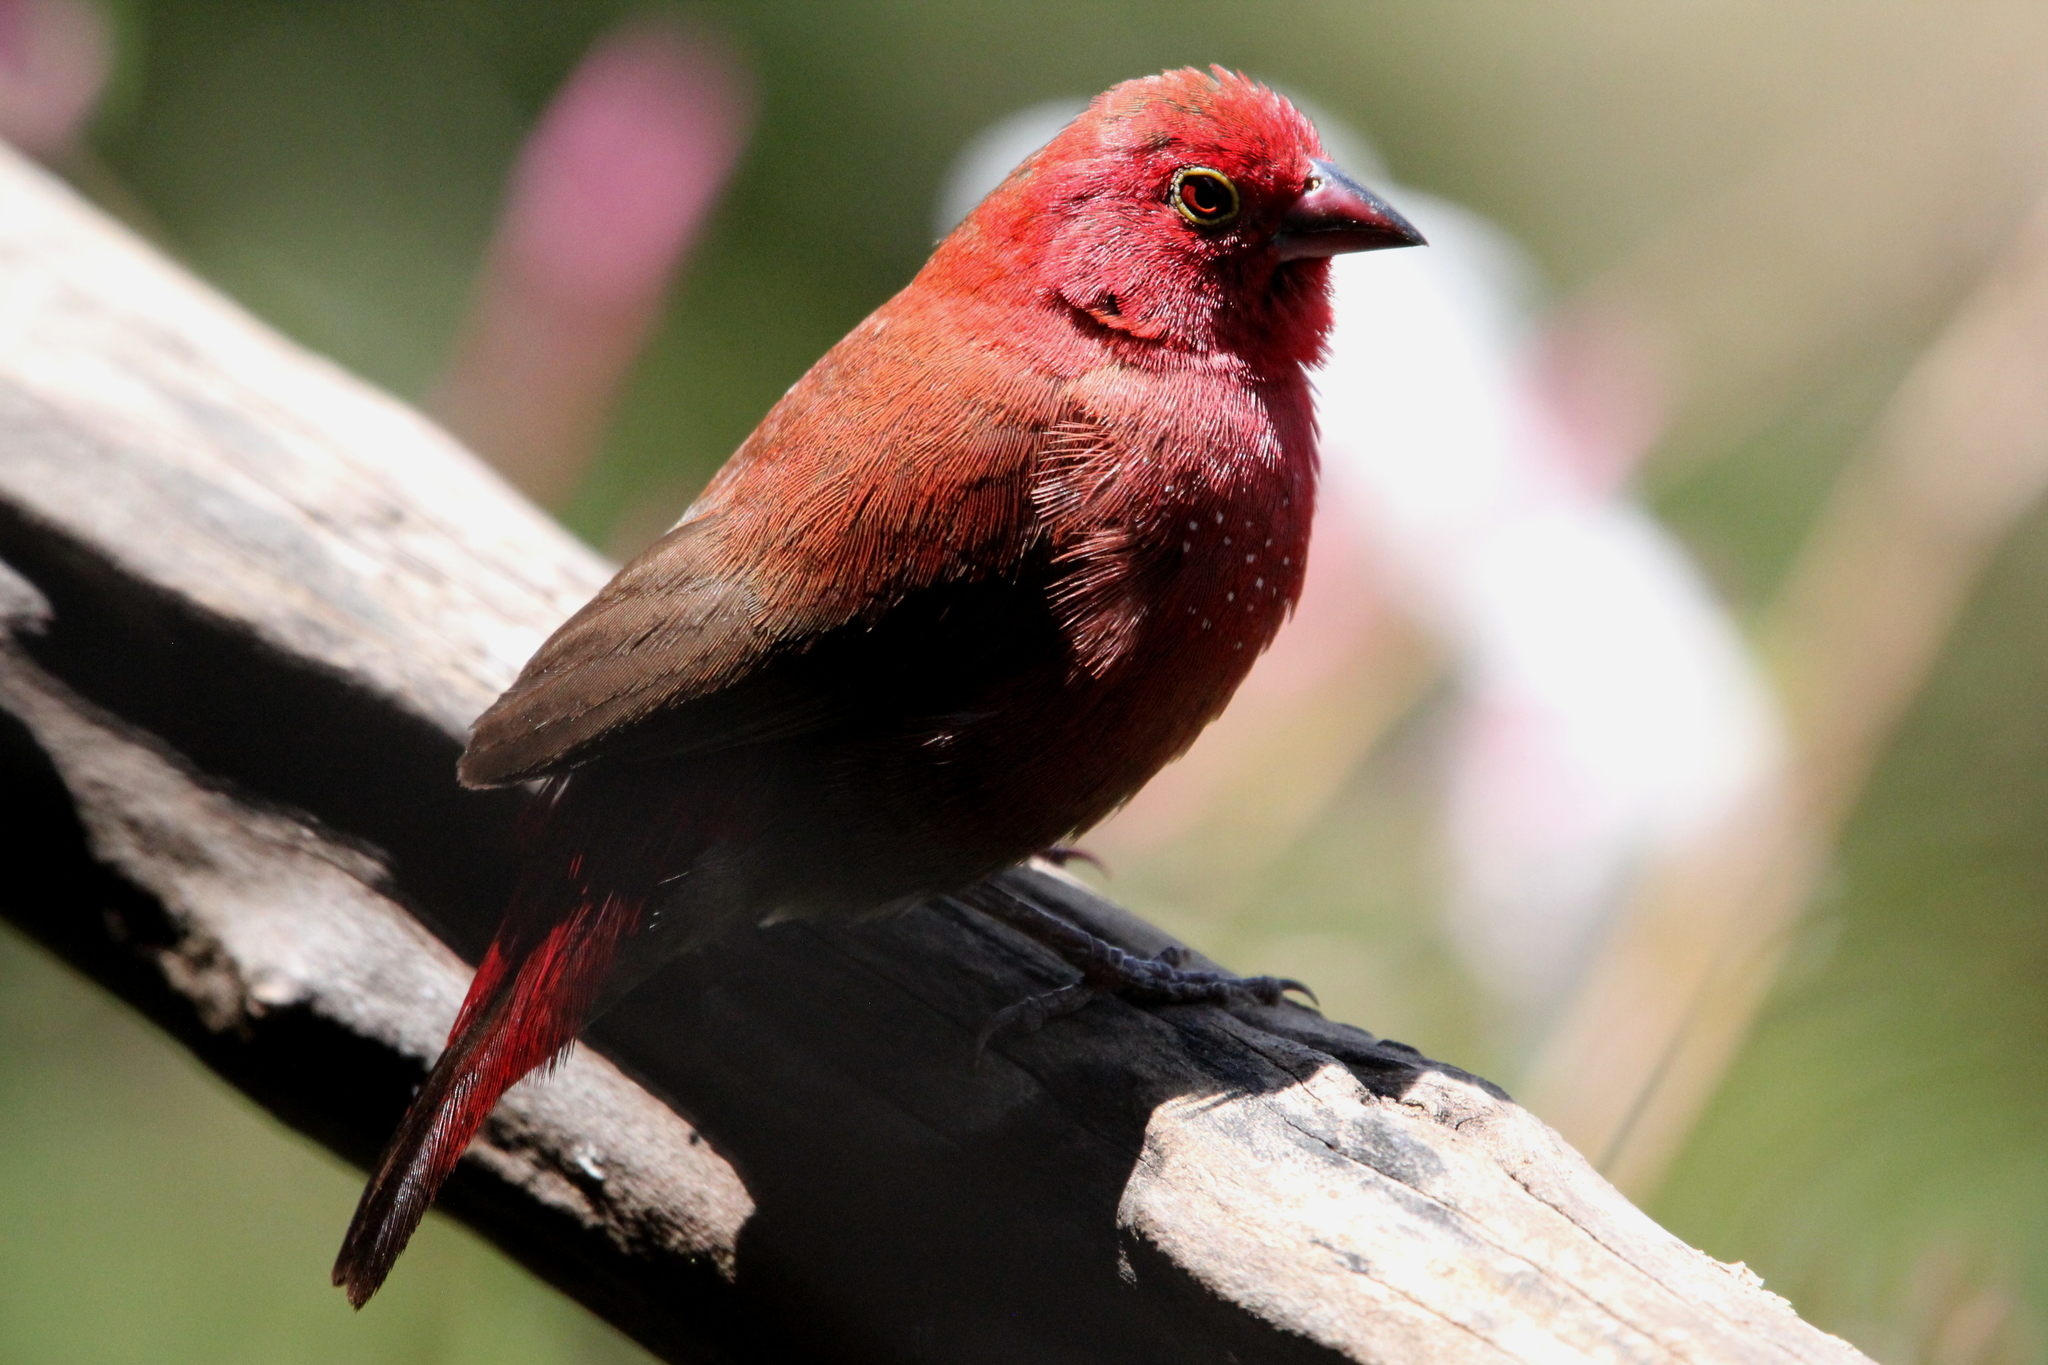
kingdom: Animalia
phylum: Chordata
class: Aves
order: Passeriformes
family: Estrildidae
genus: Lagonosticta
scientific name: Lagonosticta senegala
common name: Red-billed firefinch
